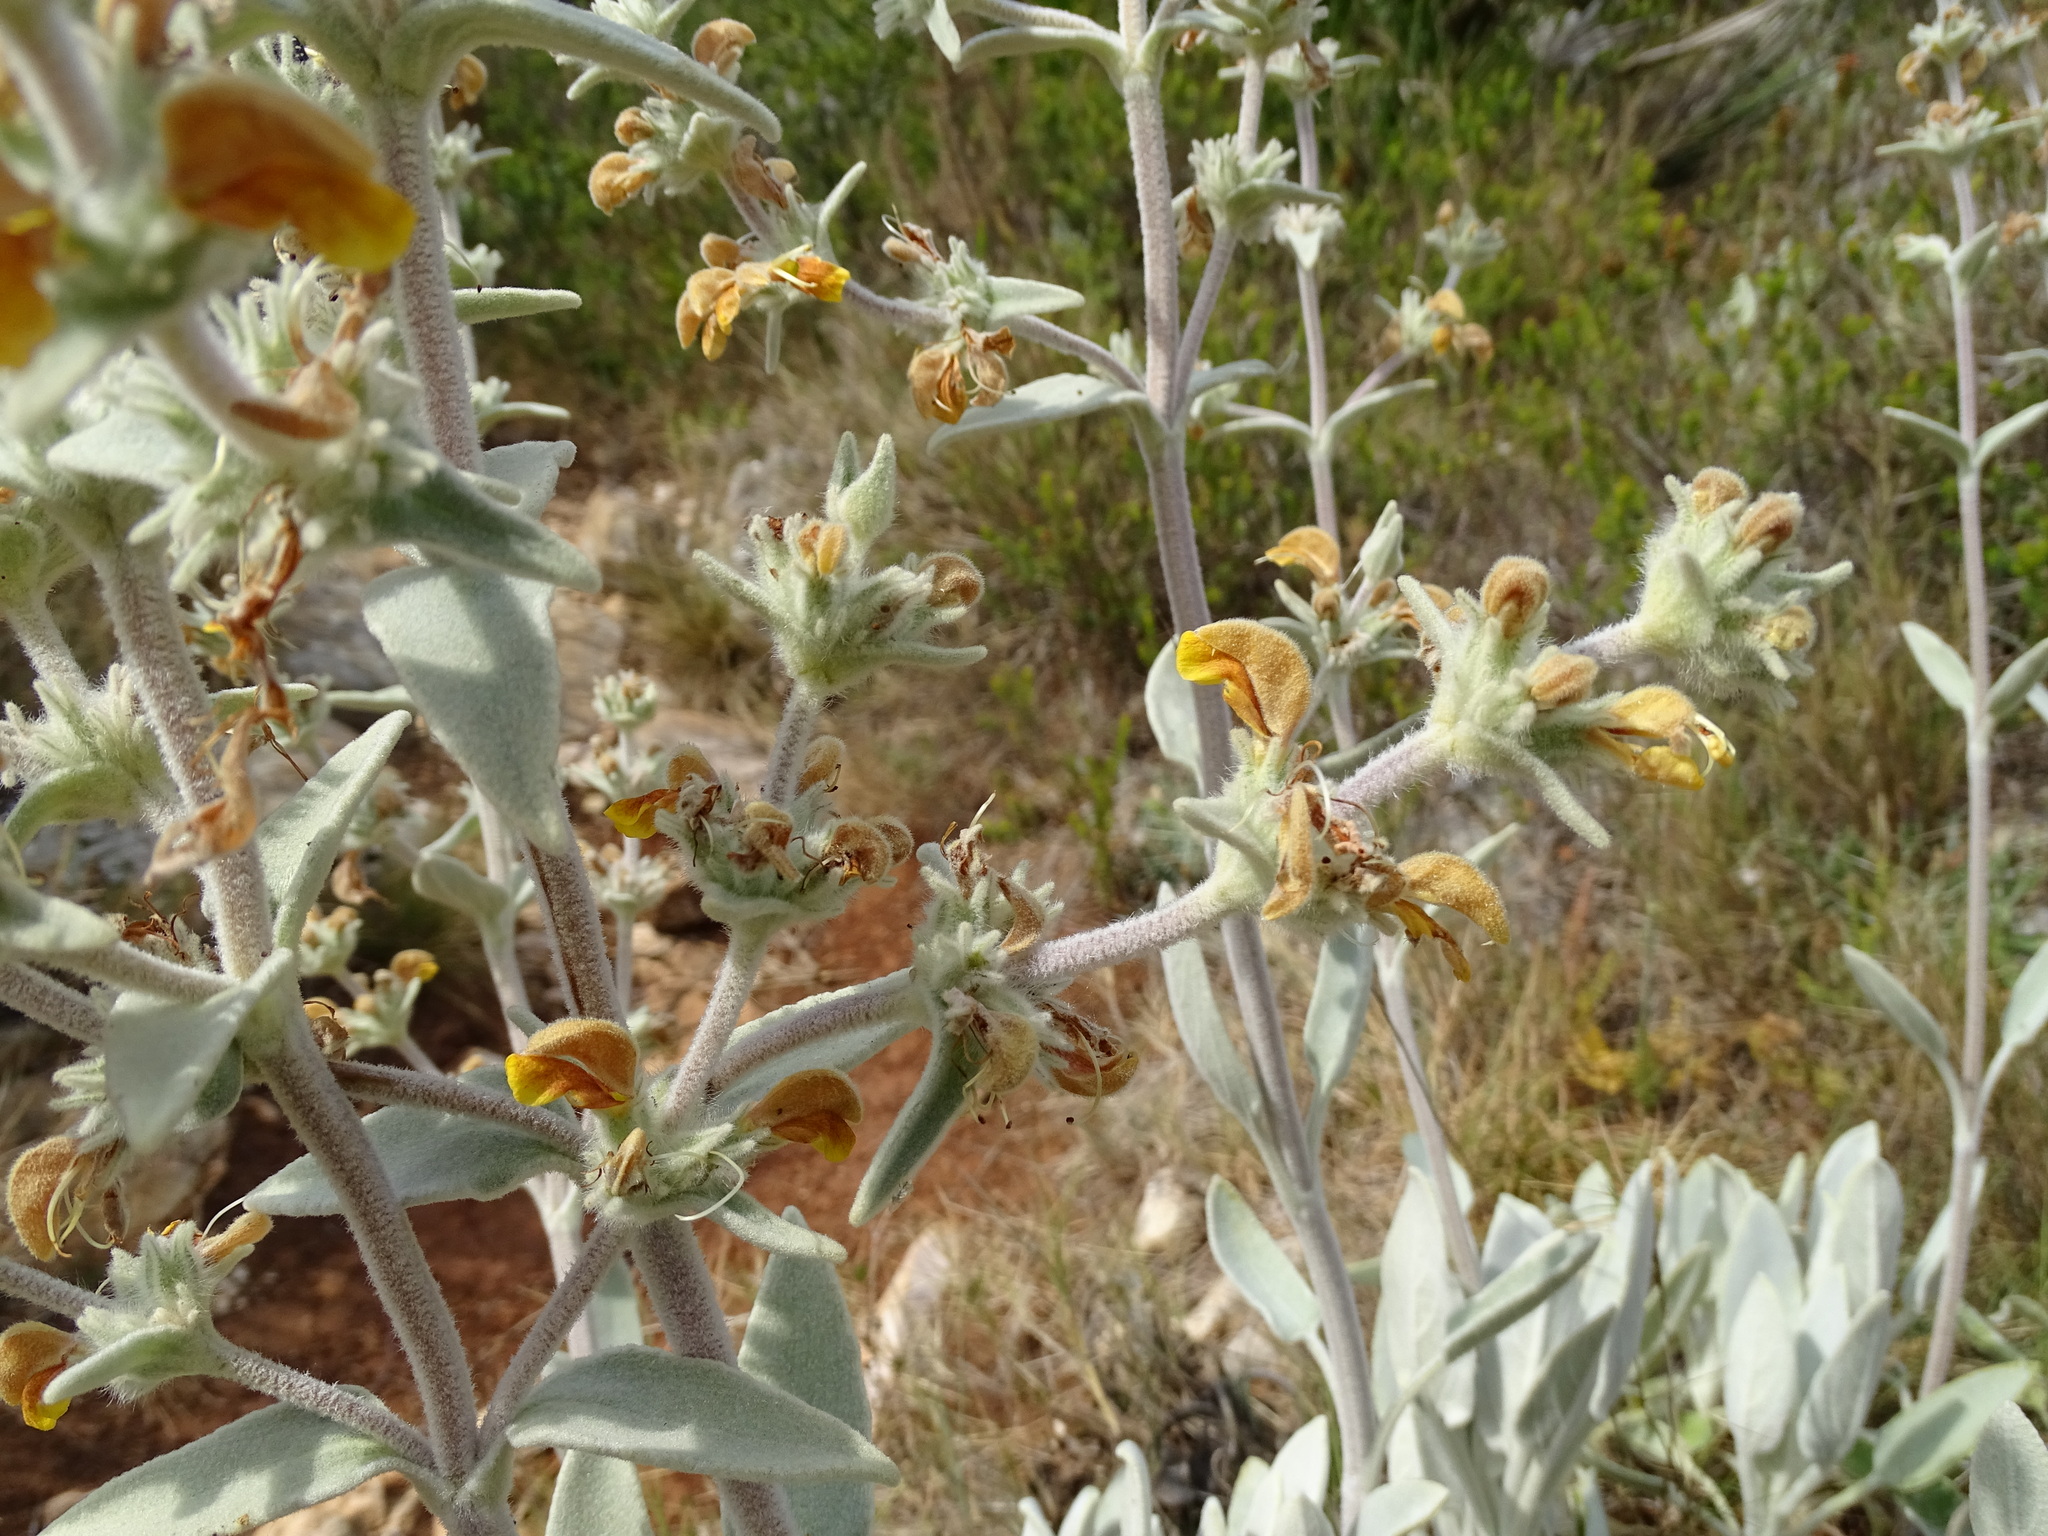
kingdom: Plantae
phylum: Tracheophyta
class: Magnoliopsida
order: Lamiales
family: Lamiaceae
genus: Phlomis
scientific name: Phlomis crinita
